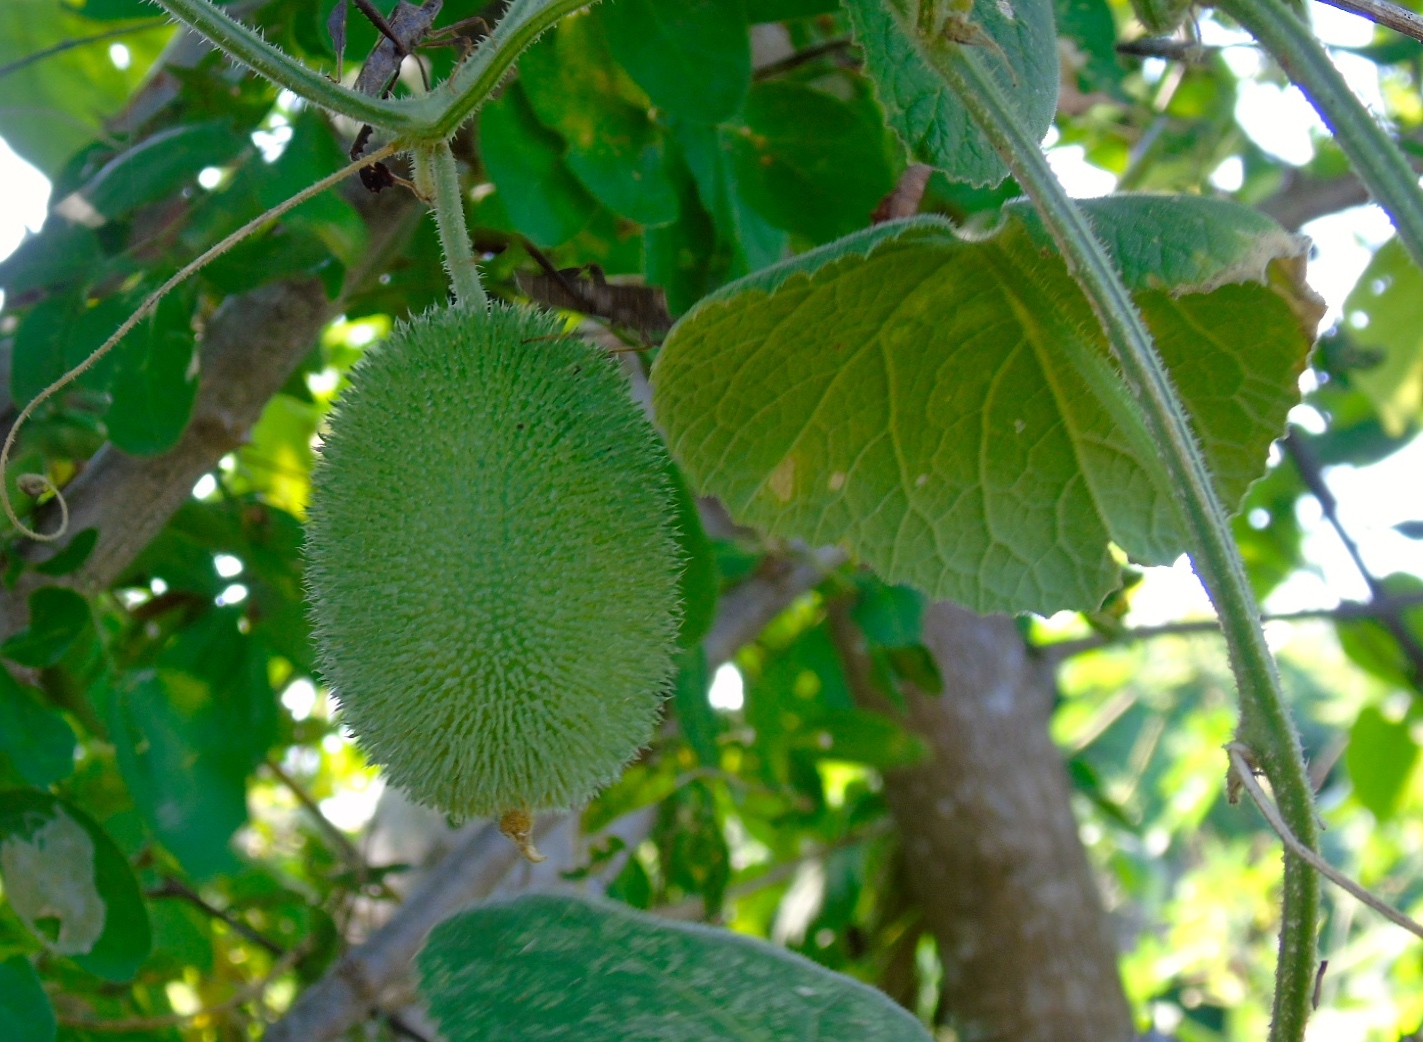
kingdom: Plantae
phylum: Tracheophyta
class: Magnoliopsida
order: Cucurbitales
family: Cucurbitaceae
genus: Cucumis
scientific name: Cucumis dipsaceus
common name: Hedgehog gourd
